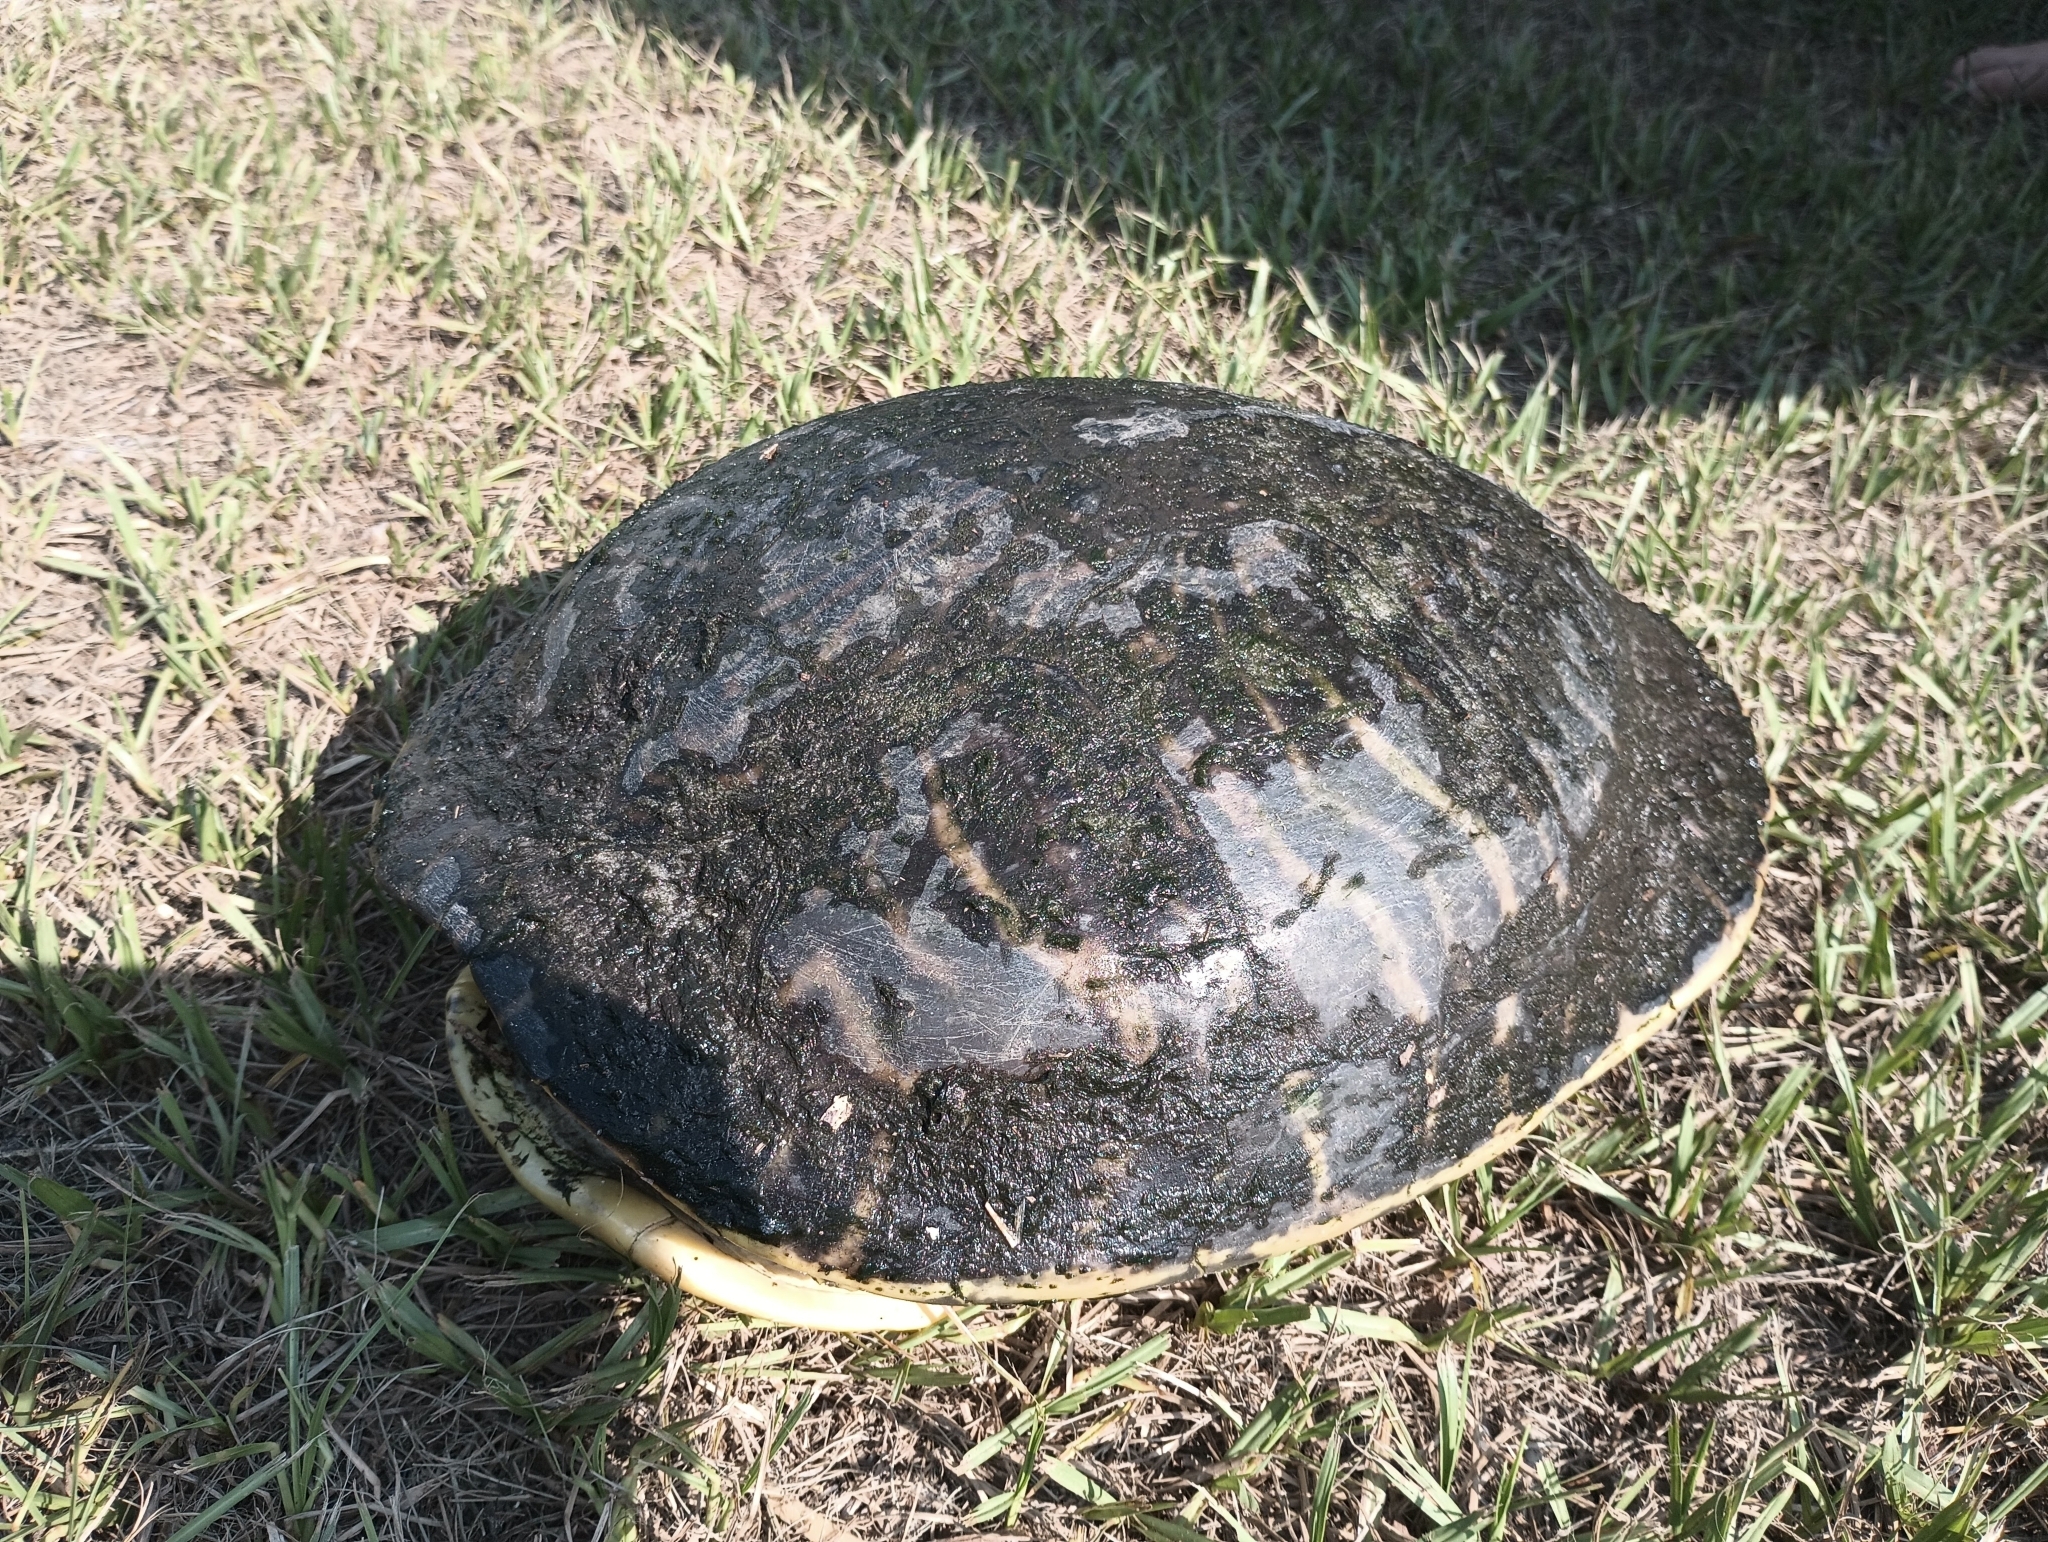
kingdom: Animalia
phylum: Chordata
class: Testudines
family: Emydidae
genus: Pseudemys
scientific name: Pseudemys peninsularis
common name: Peninsula cooter
